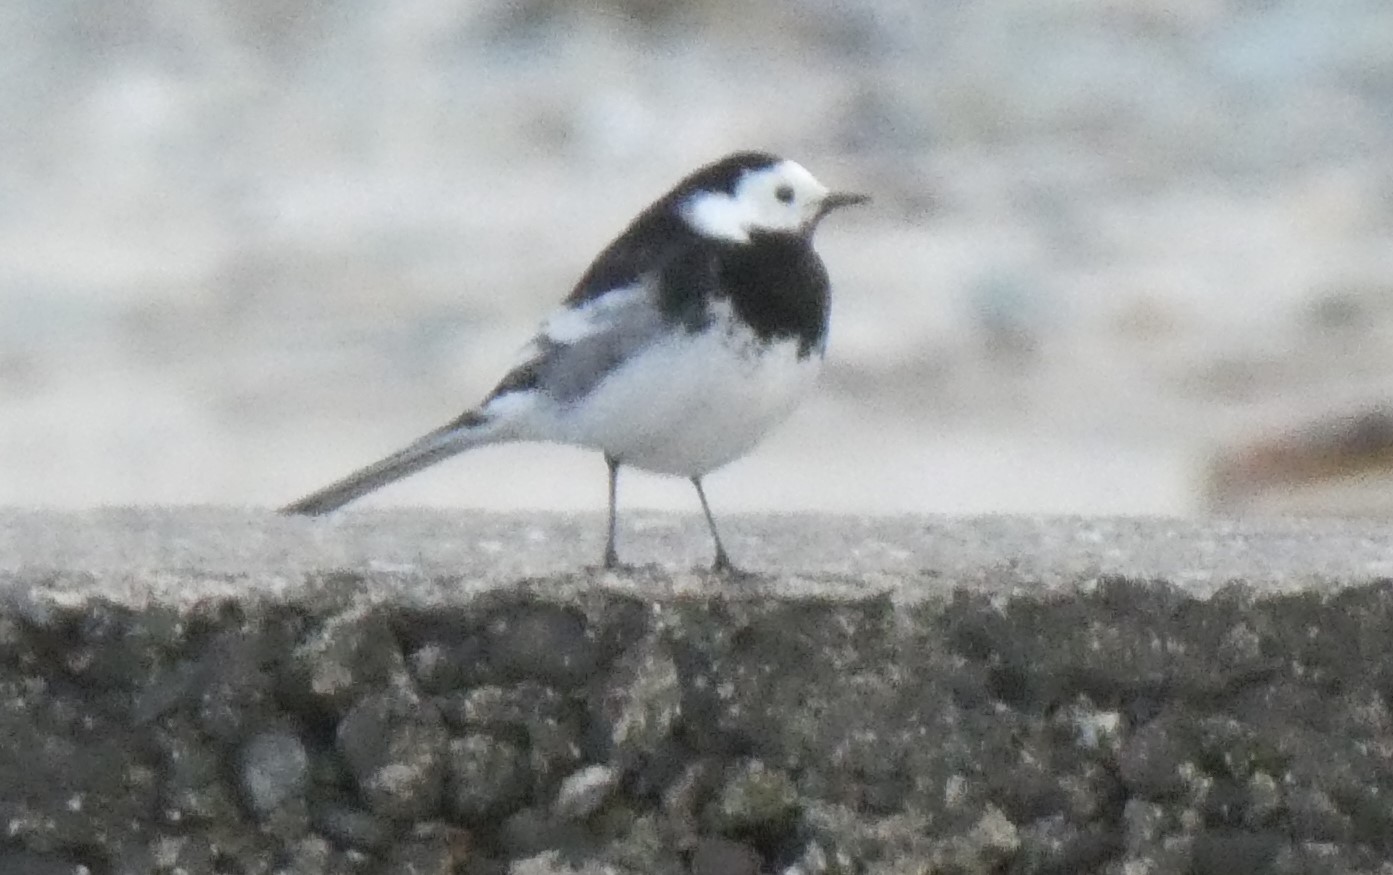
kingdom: Animalia
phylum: Chordata
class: Aves
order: Passeriformes
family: Motacillidae
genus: Motacilla
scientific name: Motacilla alba
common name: White wagtail
